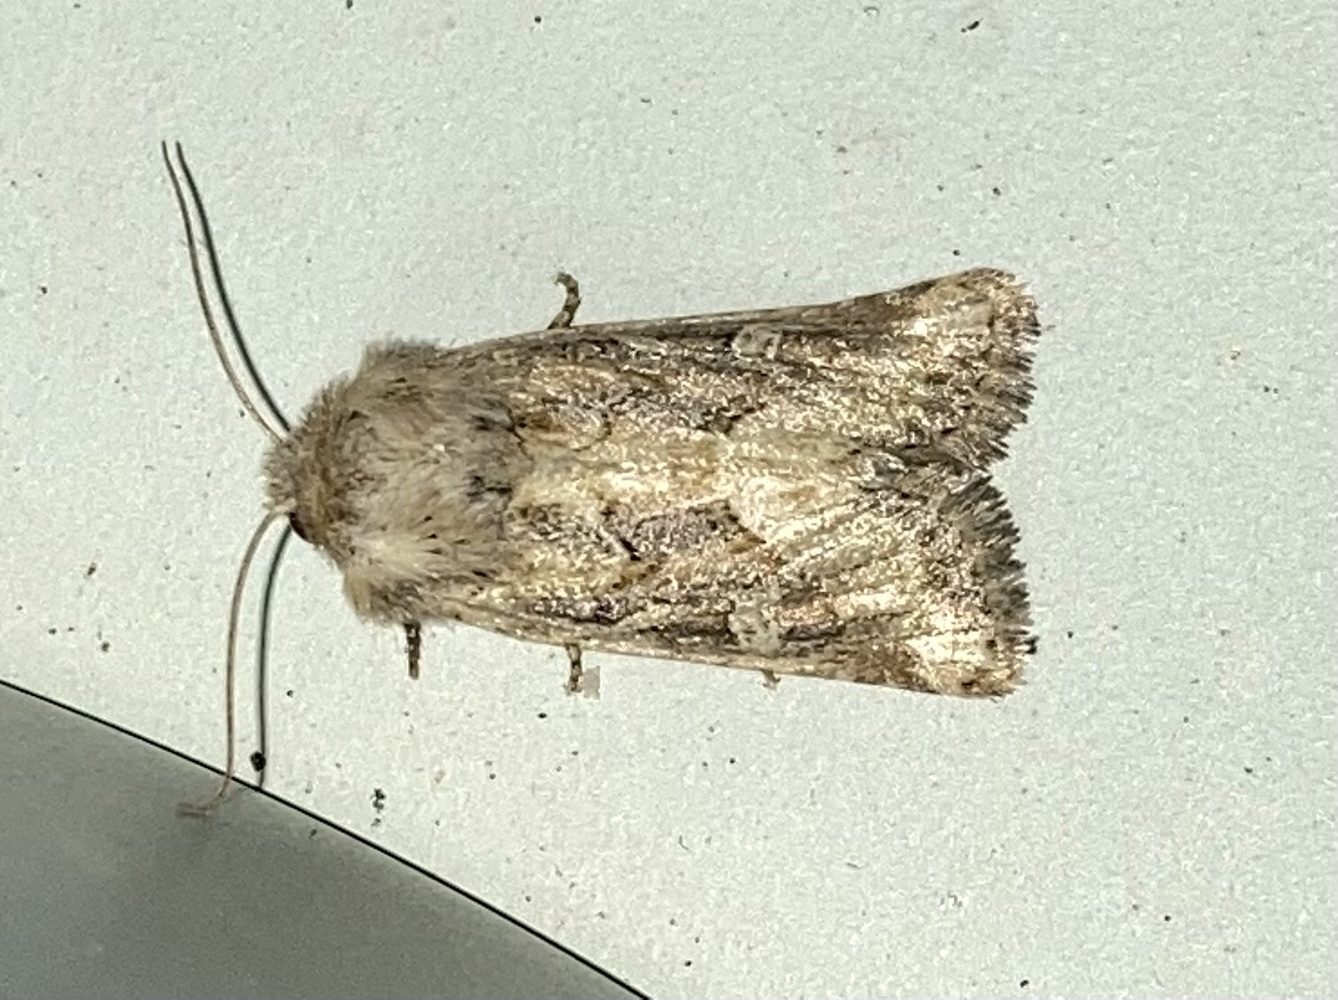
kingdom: Animalia
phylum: Arthropoda
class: Insecta
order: Lepidoptera
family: Noctuidae
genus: Luperina
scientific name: Luperina dumerilii
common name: Dumeril's rustic
